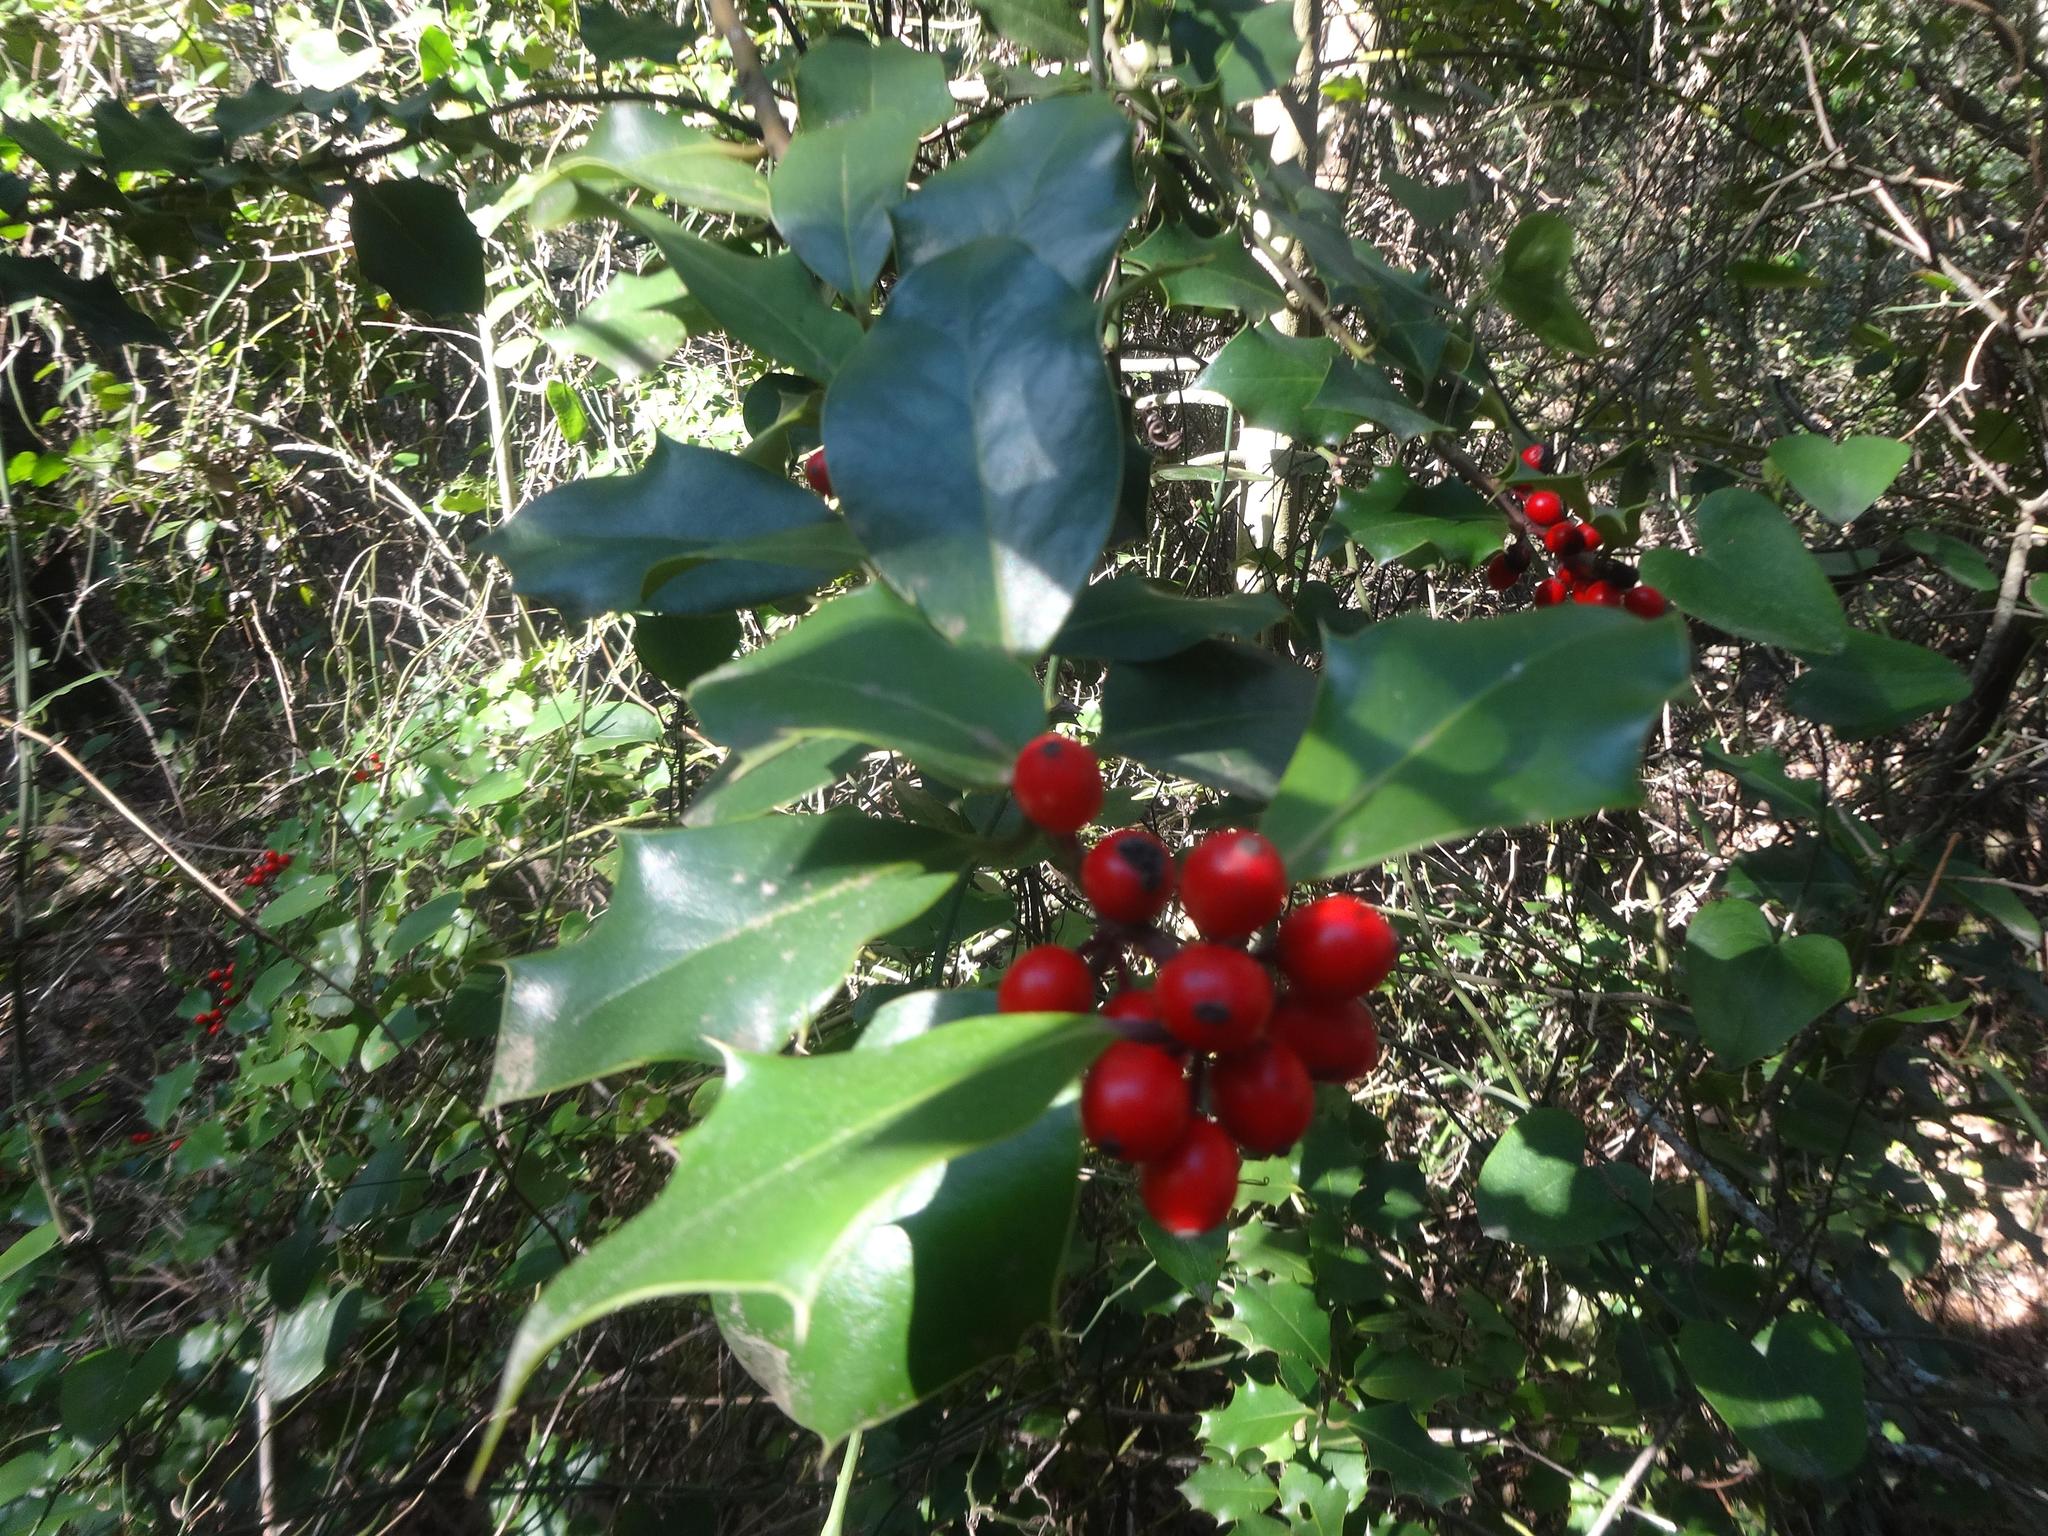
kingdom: Plantae
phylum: Tracheophyta
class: Magnoliopsida
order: Aquifoliales
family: Aquifoliaceae
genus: Ilex
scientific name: Ilex aquifolium
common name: English holly
